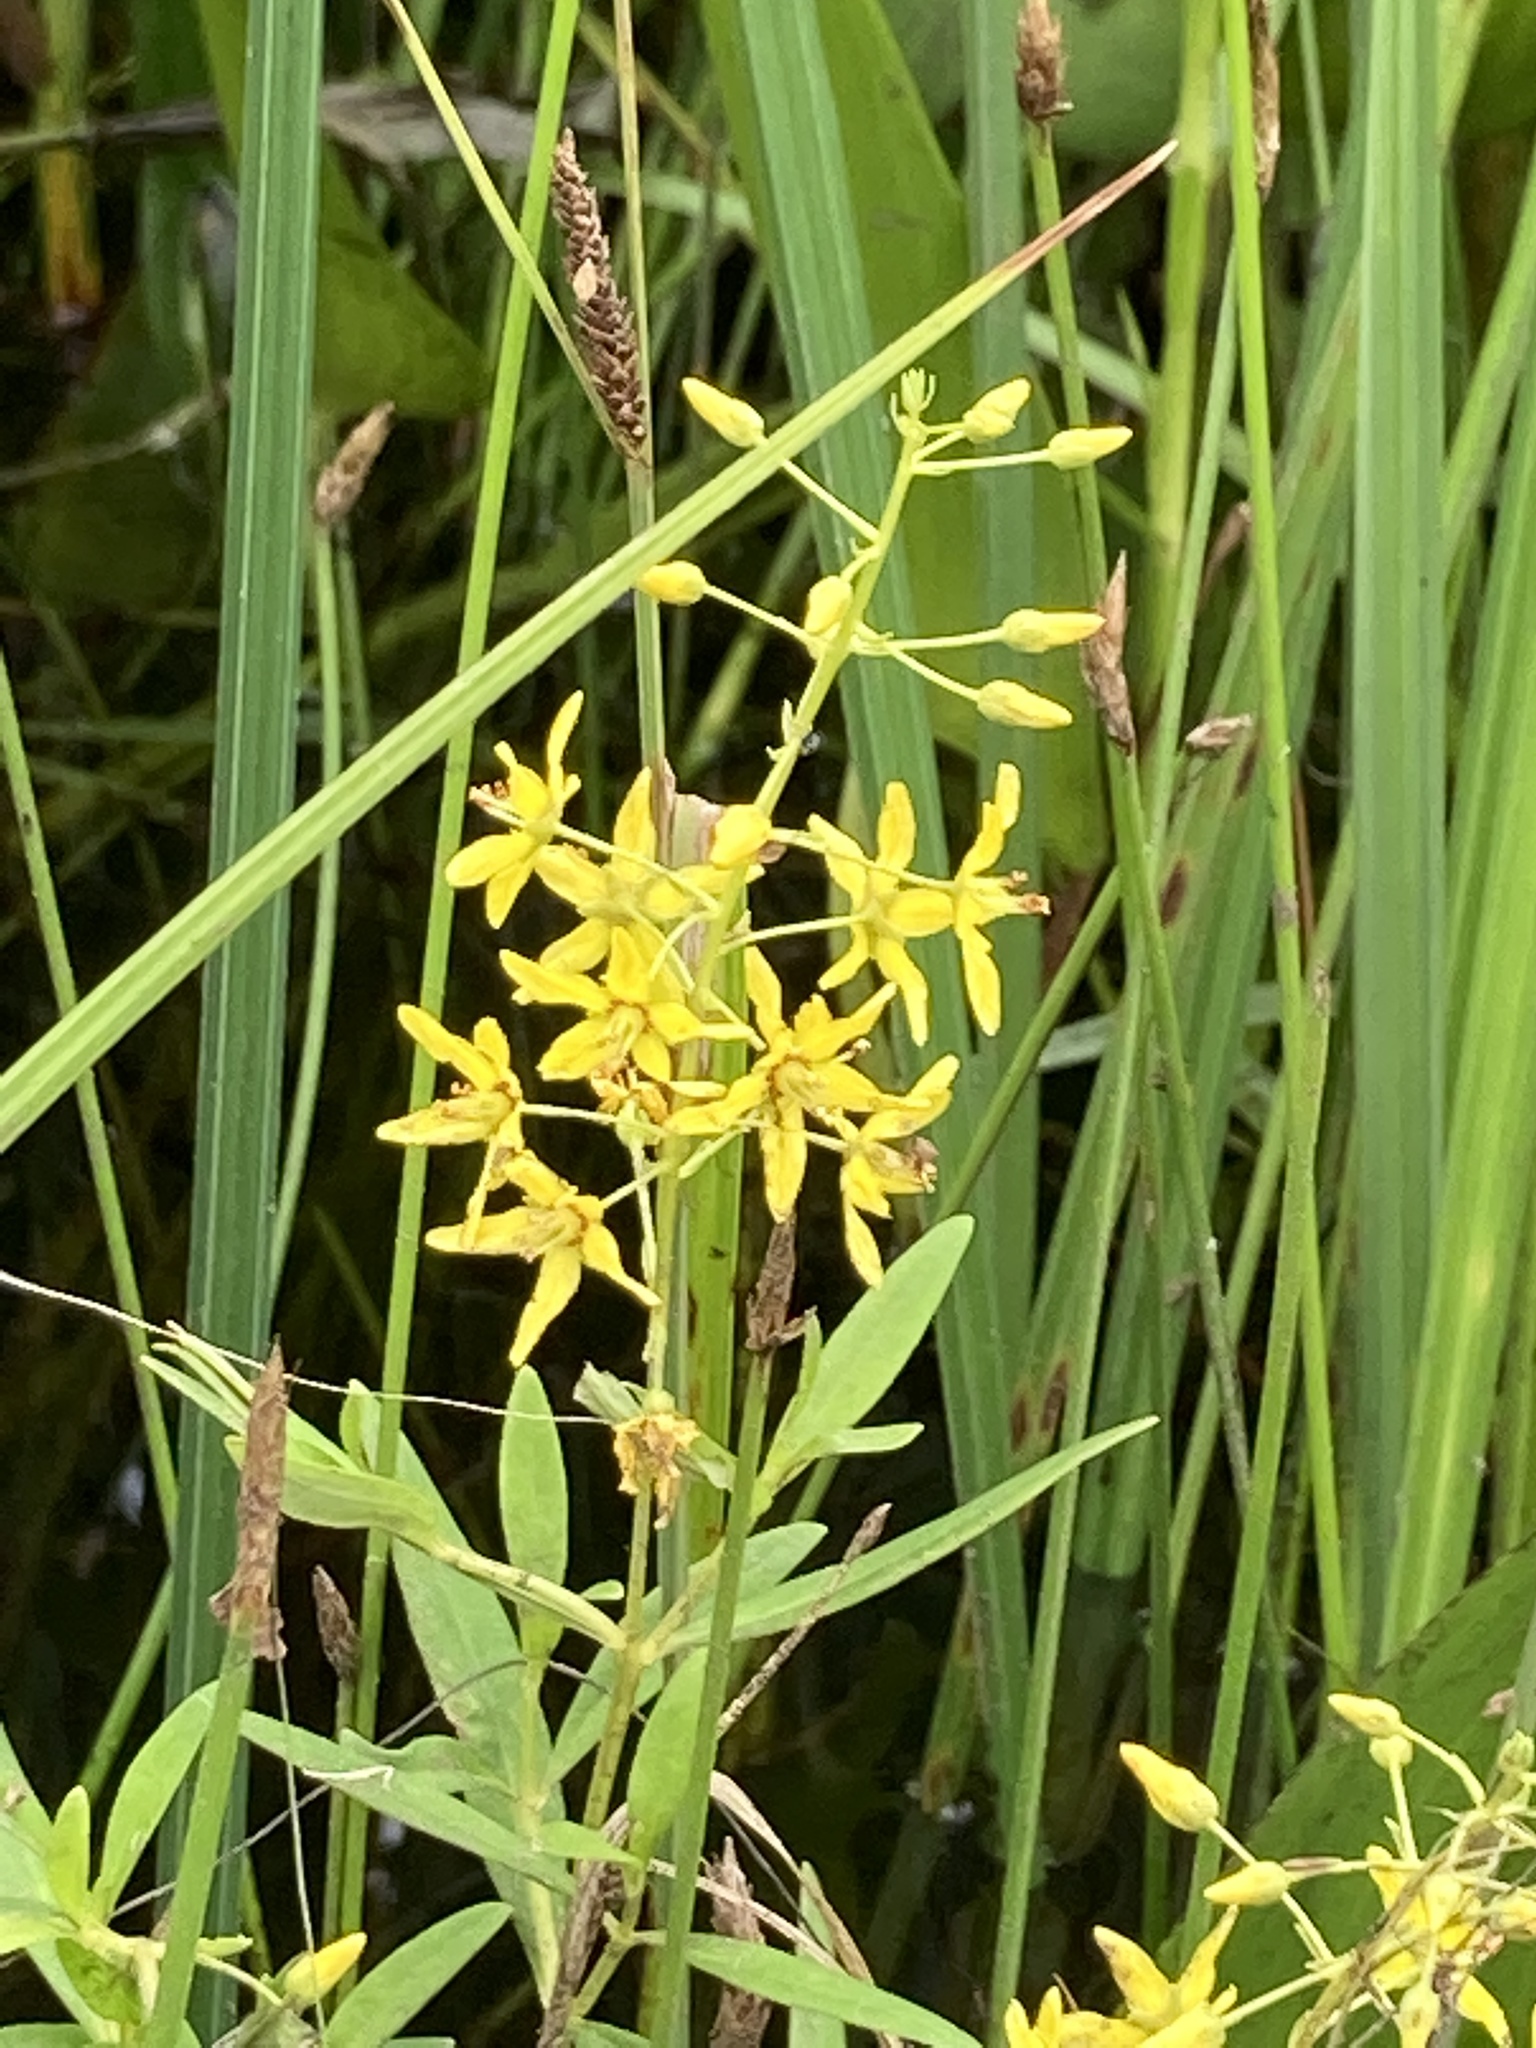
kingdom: Plantae
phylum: Tracheophyta
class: Magnoliopsida
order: Ericales
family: Primulaceae
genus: Lysimachia
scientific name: Lysimachia terrestris
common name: Lake loosestrife
